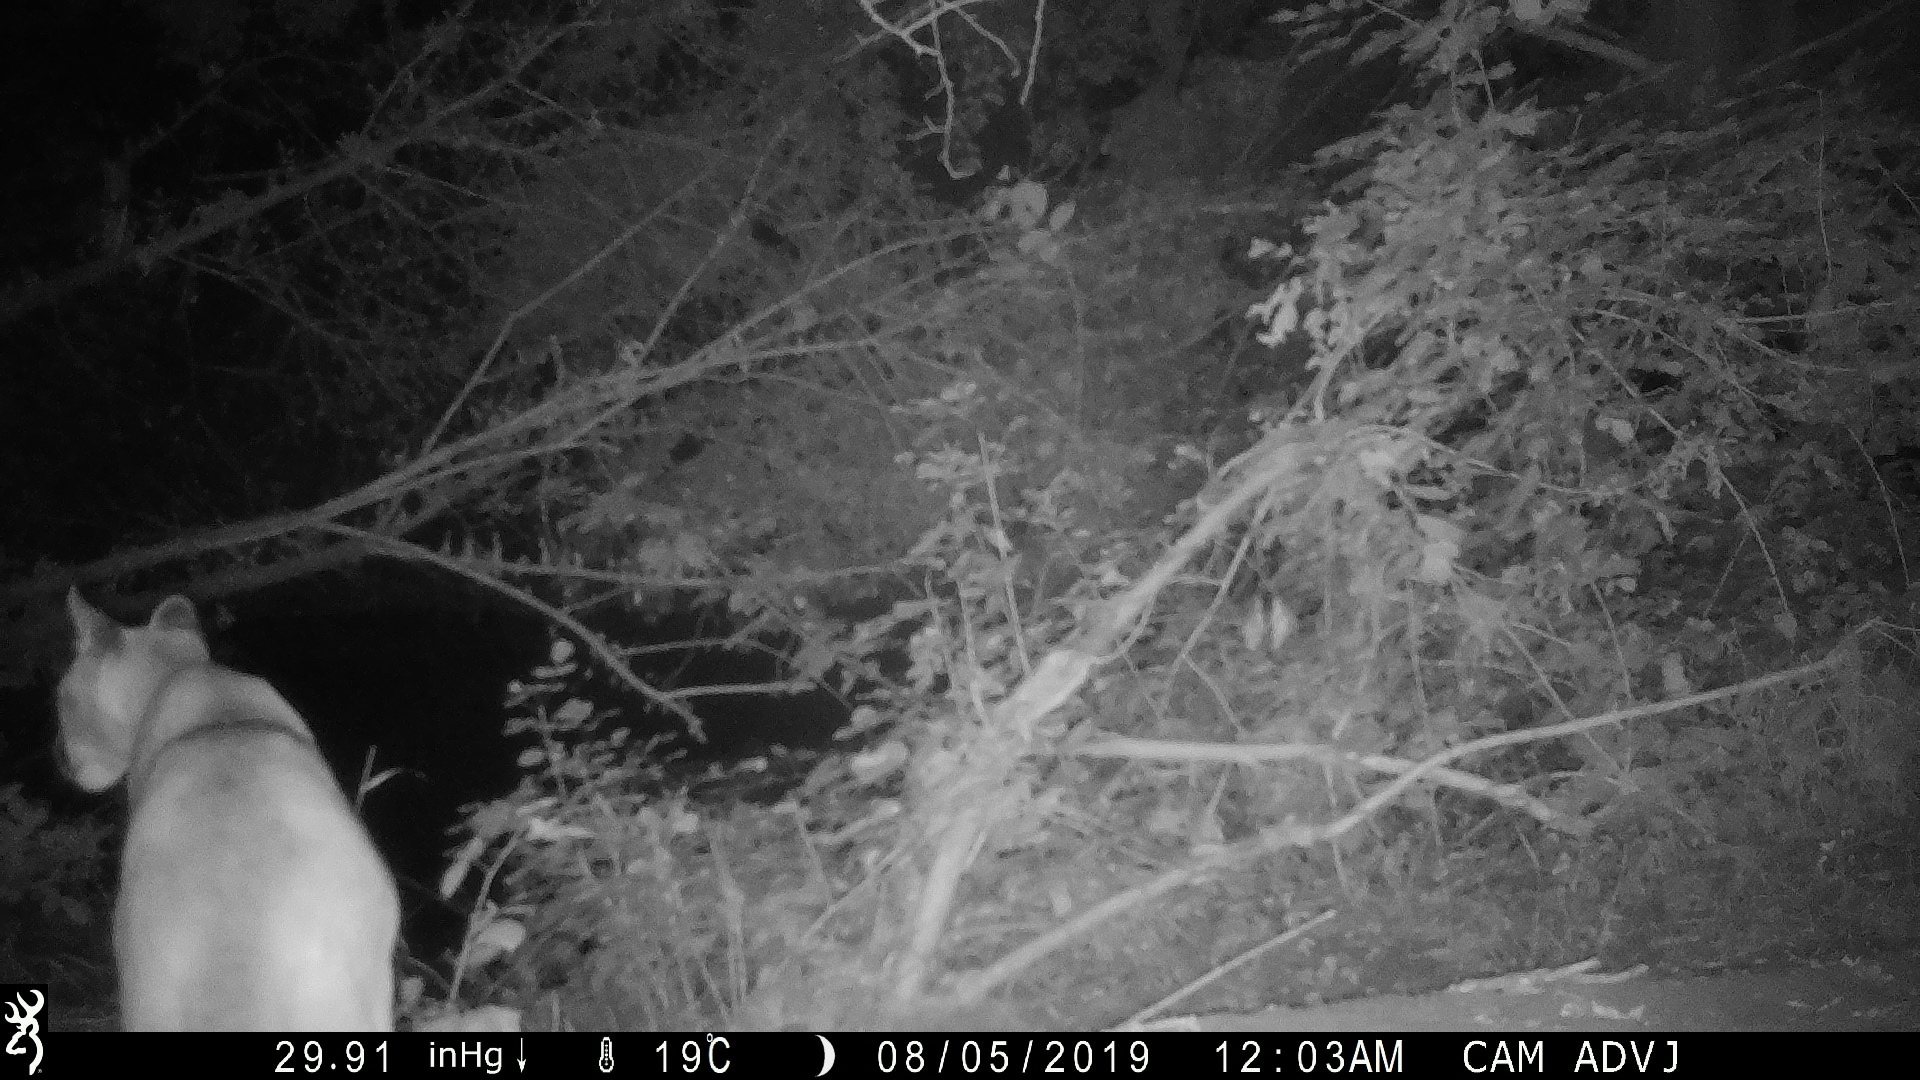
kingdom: Animalia
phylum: Chordata
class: Mammalia
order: Carnivora
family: Felidae
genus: Puma
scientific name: Puma concolor
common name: Puma
